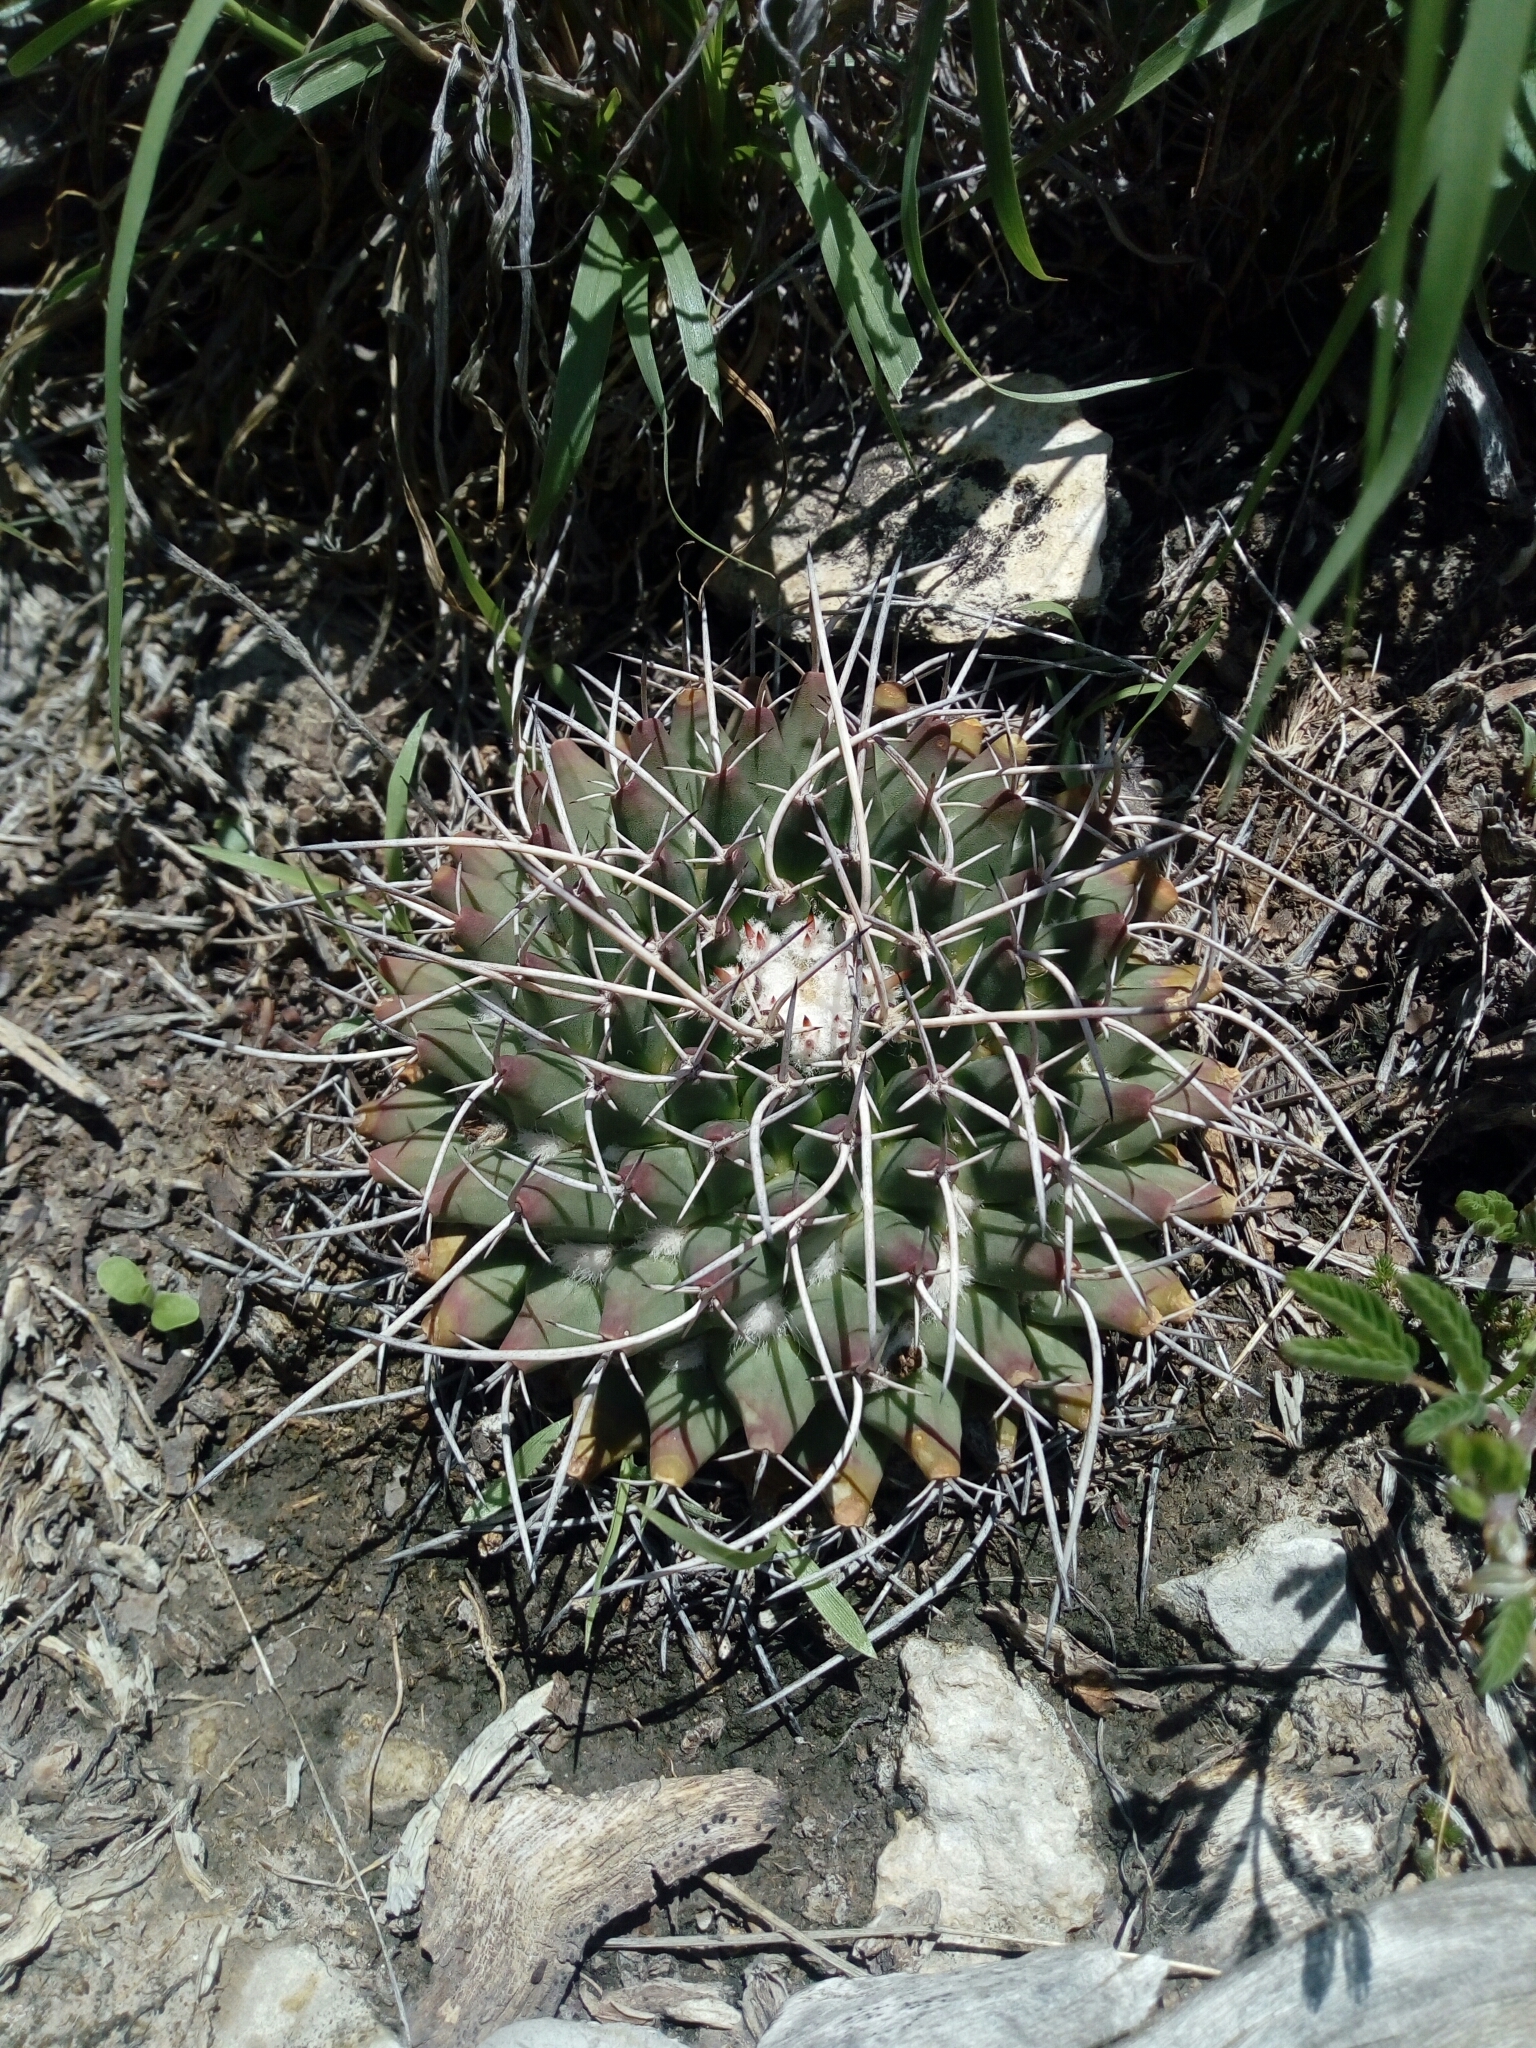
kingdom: Plantae
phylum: Tracheophyta
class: Magnoliopsida
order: Caryophyllales
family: Cactaceae
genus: Mammillaria
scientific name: Mammillaria magnimamma
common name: Mexican pincushion
